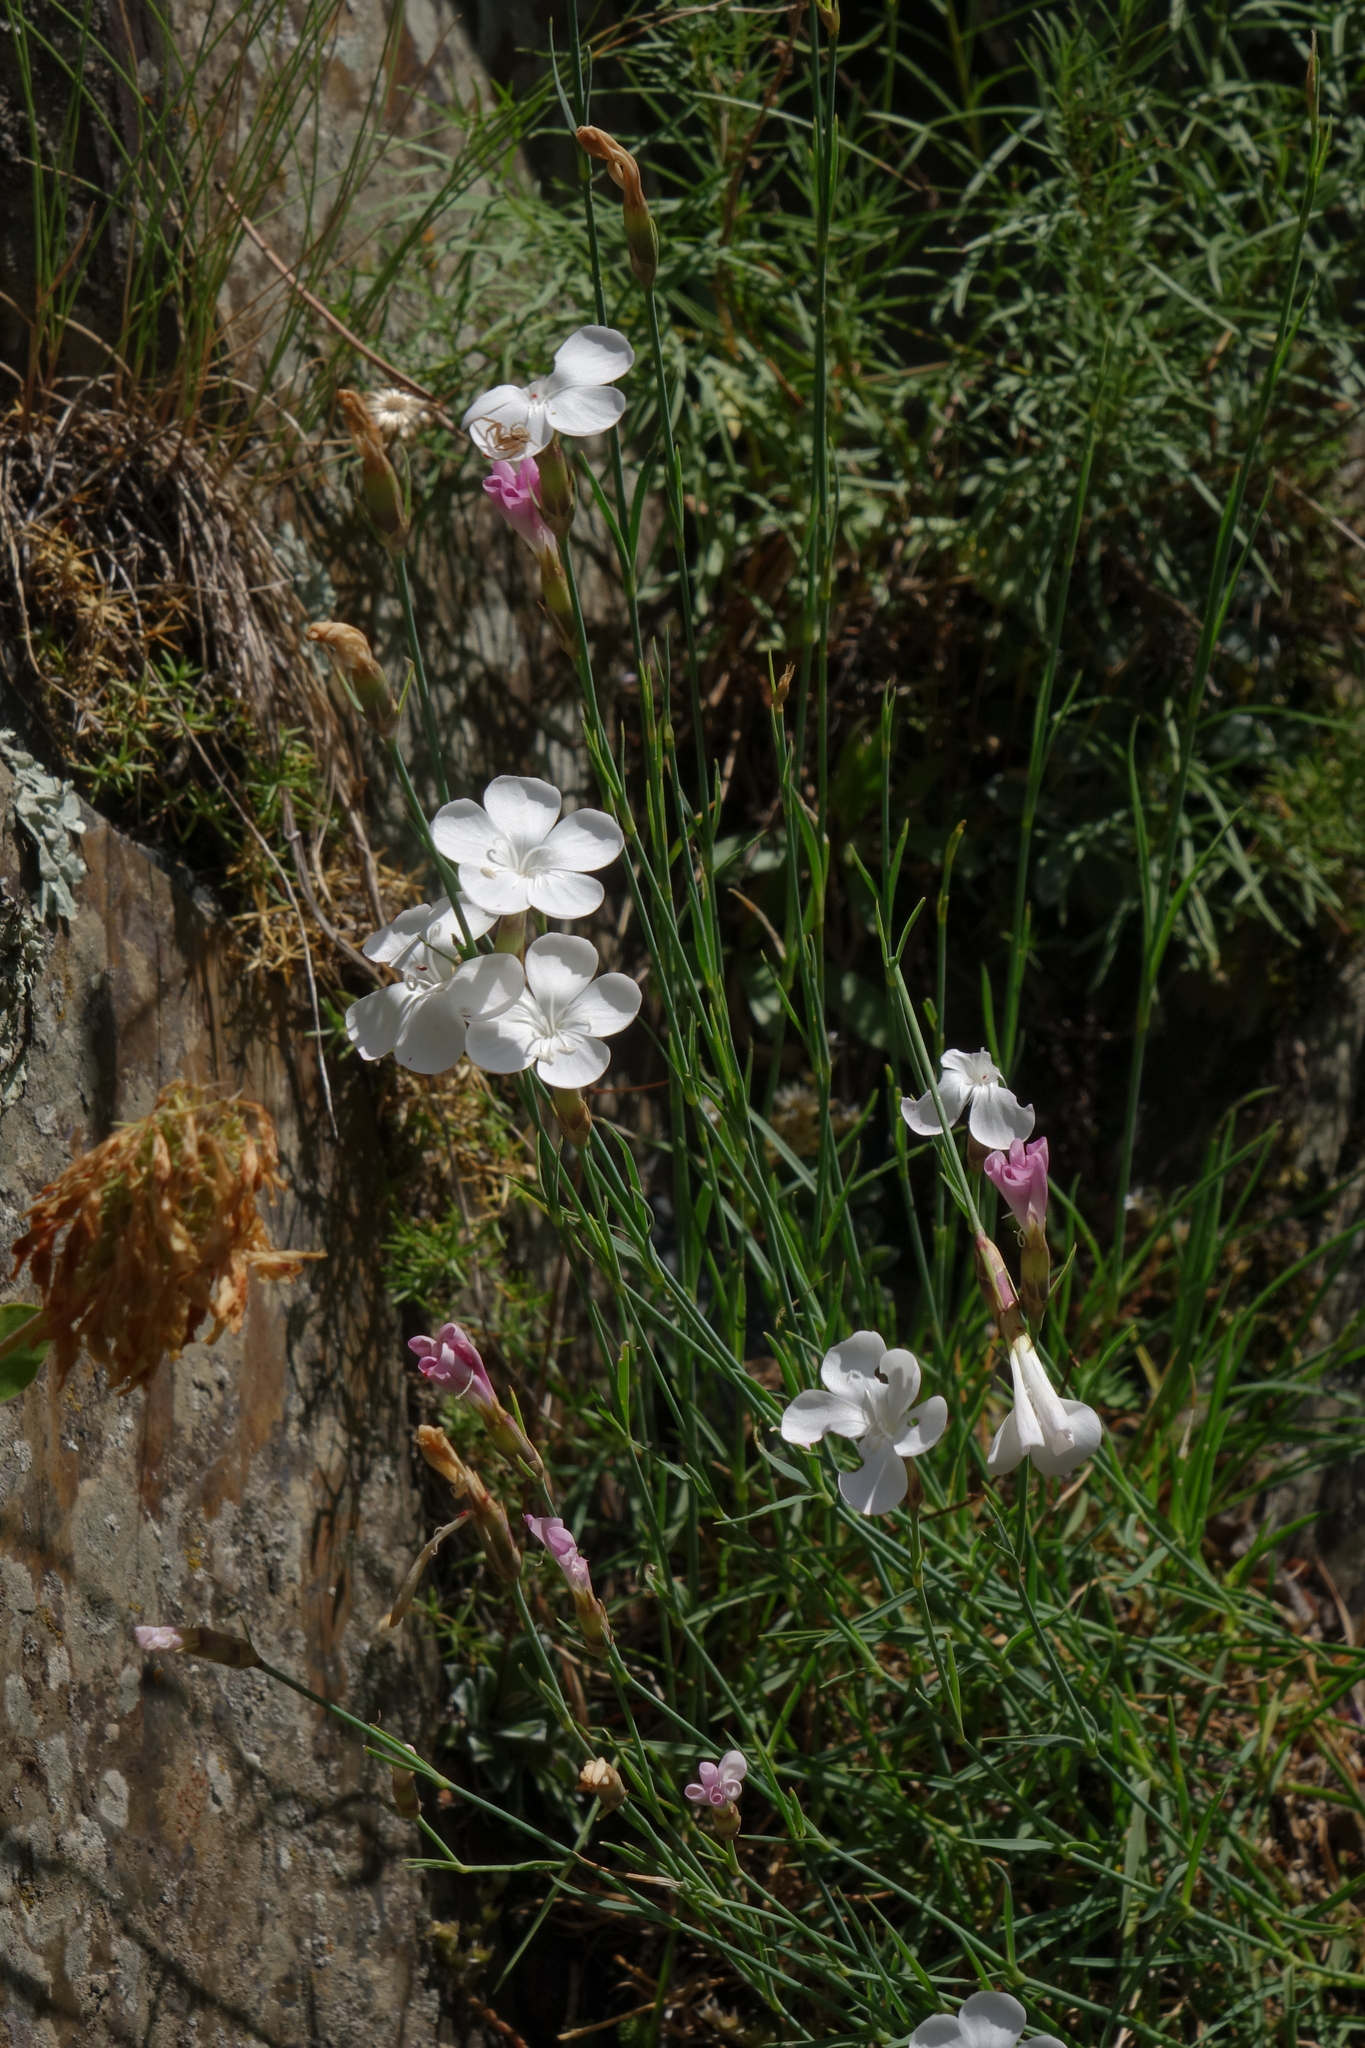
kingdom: Plantae
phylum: Tracheophyta
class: Magnoliopsida
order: Caryophyllales
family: Caryophyllaceae
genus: Dianthus
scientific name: Dianthus cretaceus
